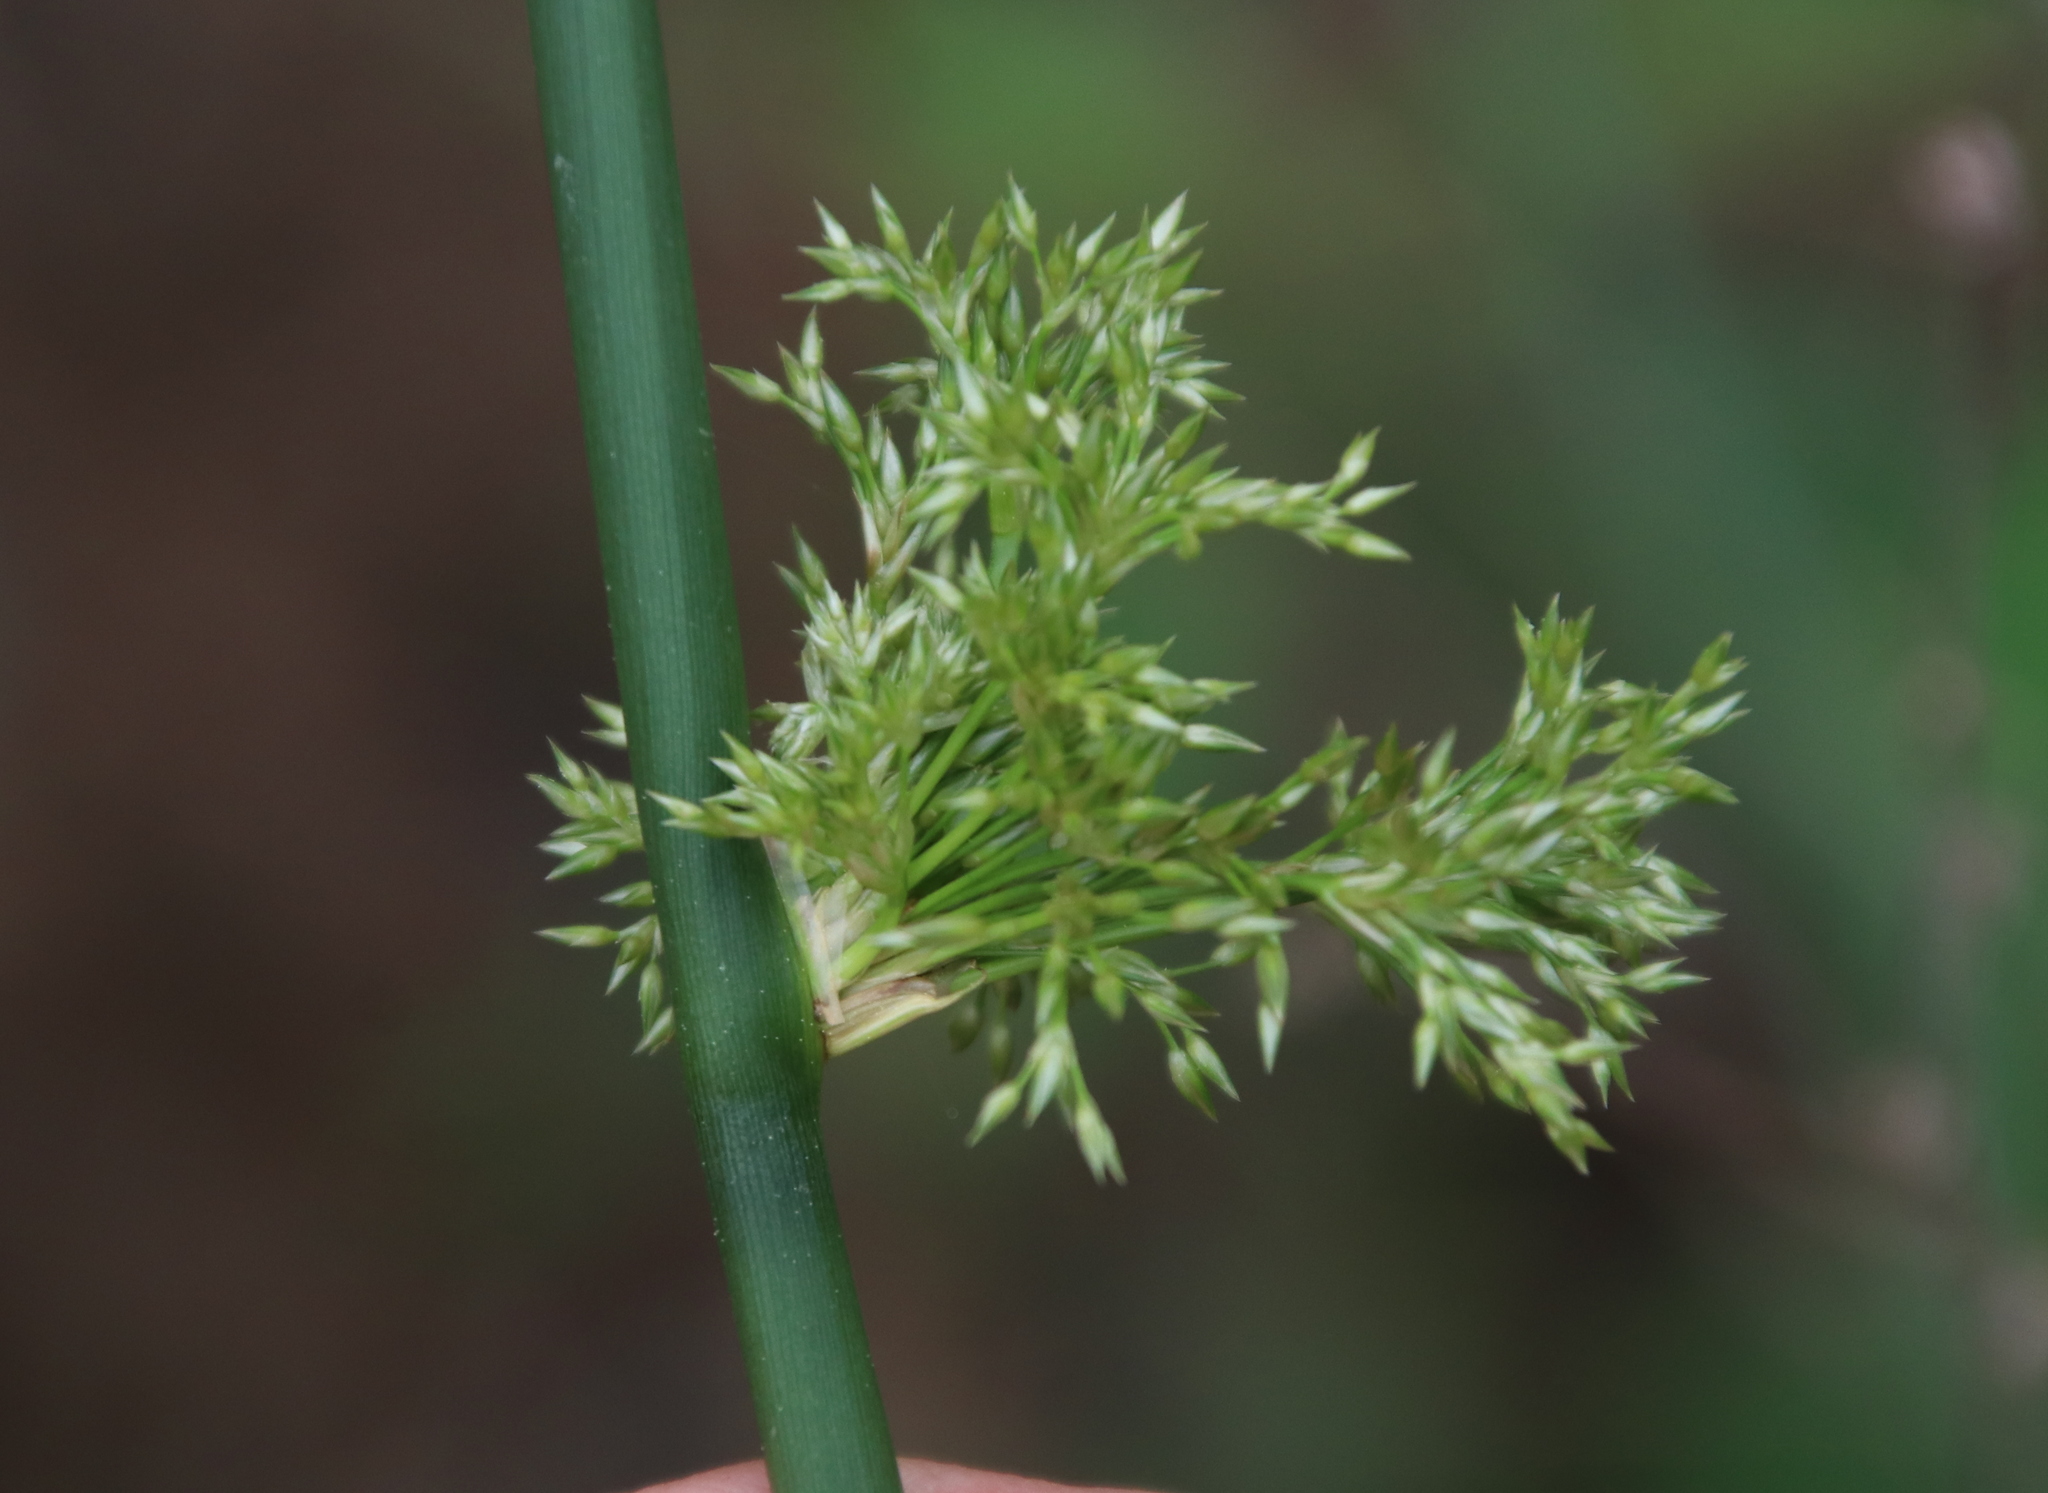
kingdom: Plantae
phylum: Tracheophyta
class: Liliopsida
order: Poales
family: Juncaceae
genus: Juncus
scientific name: Juncus effusus
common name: Soft rush
